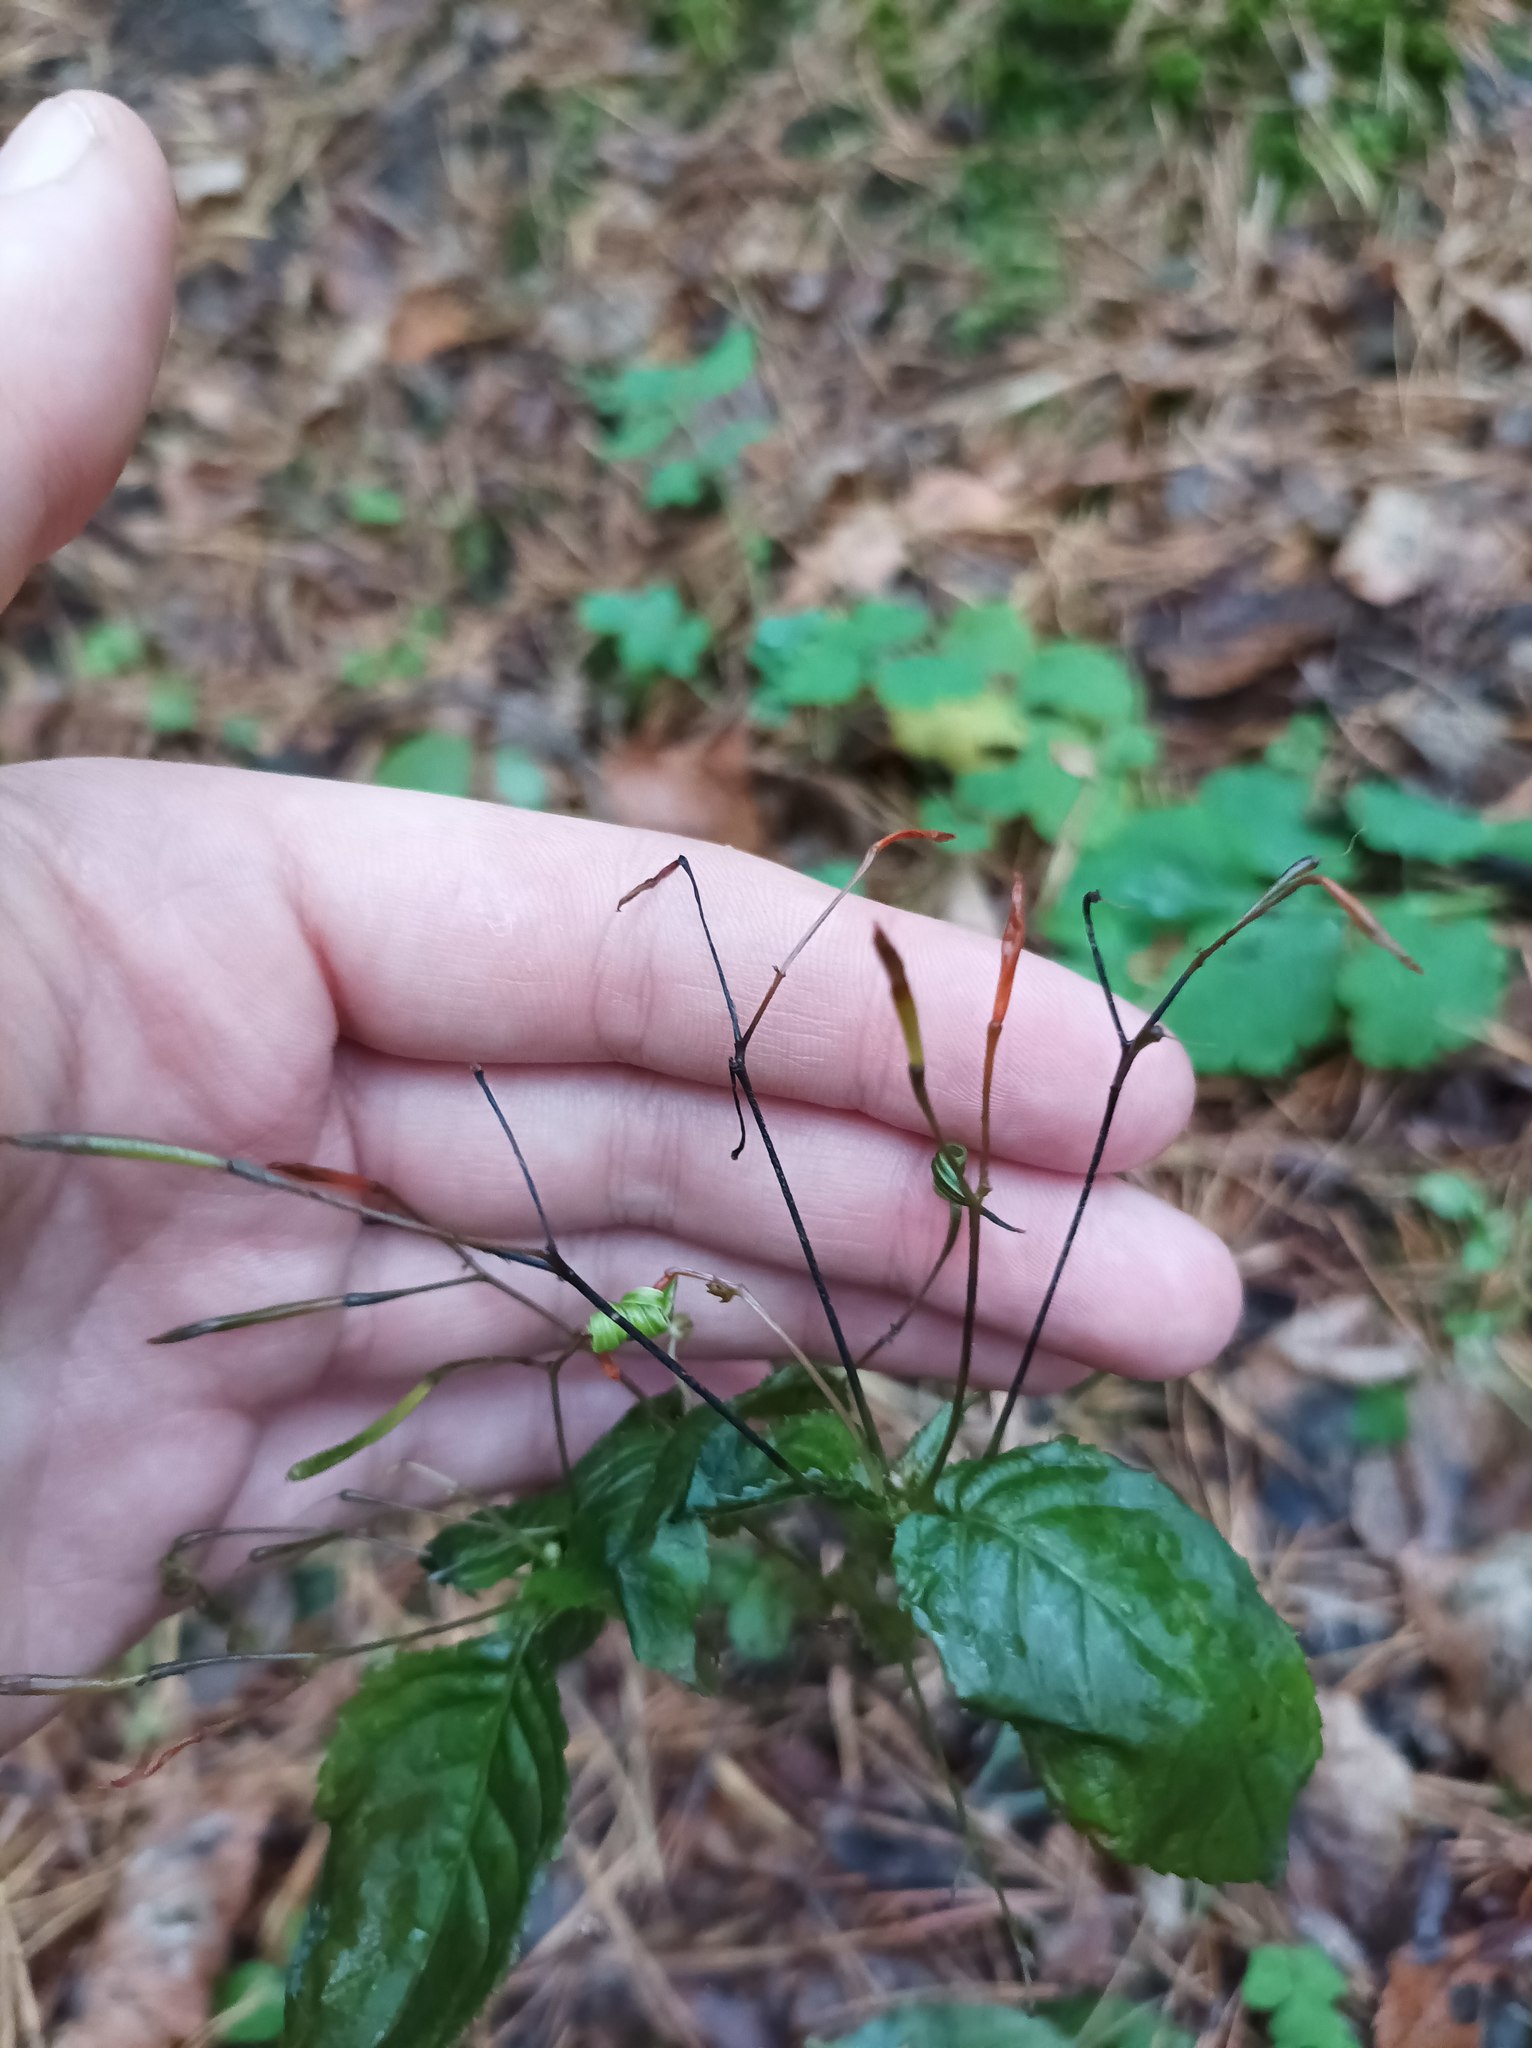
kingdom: Plantae
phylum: Tracheophyta
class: Magnoliopsida
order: Ericales
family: Balsaminaceae
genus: Impatiens
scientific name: Impatiens parviflora
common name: Small balsam
